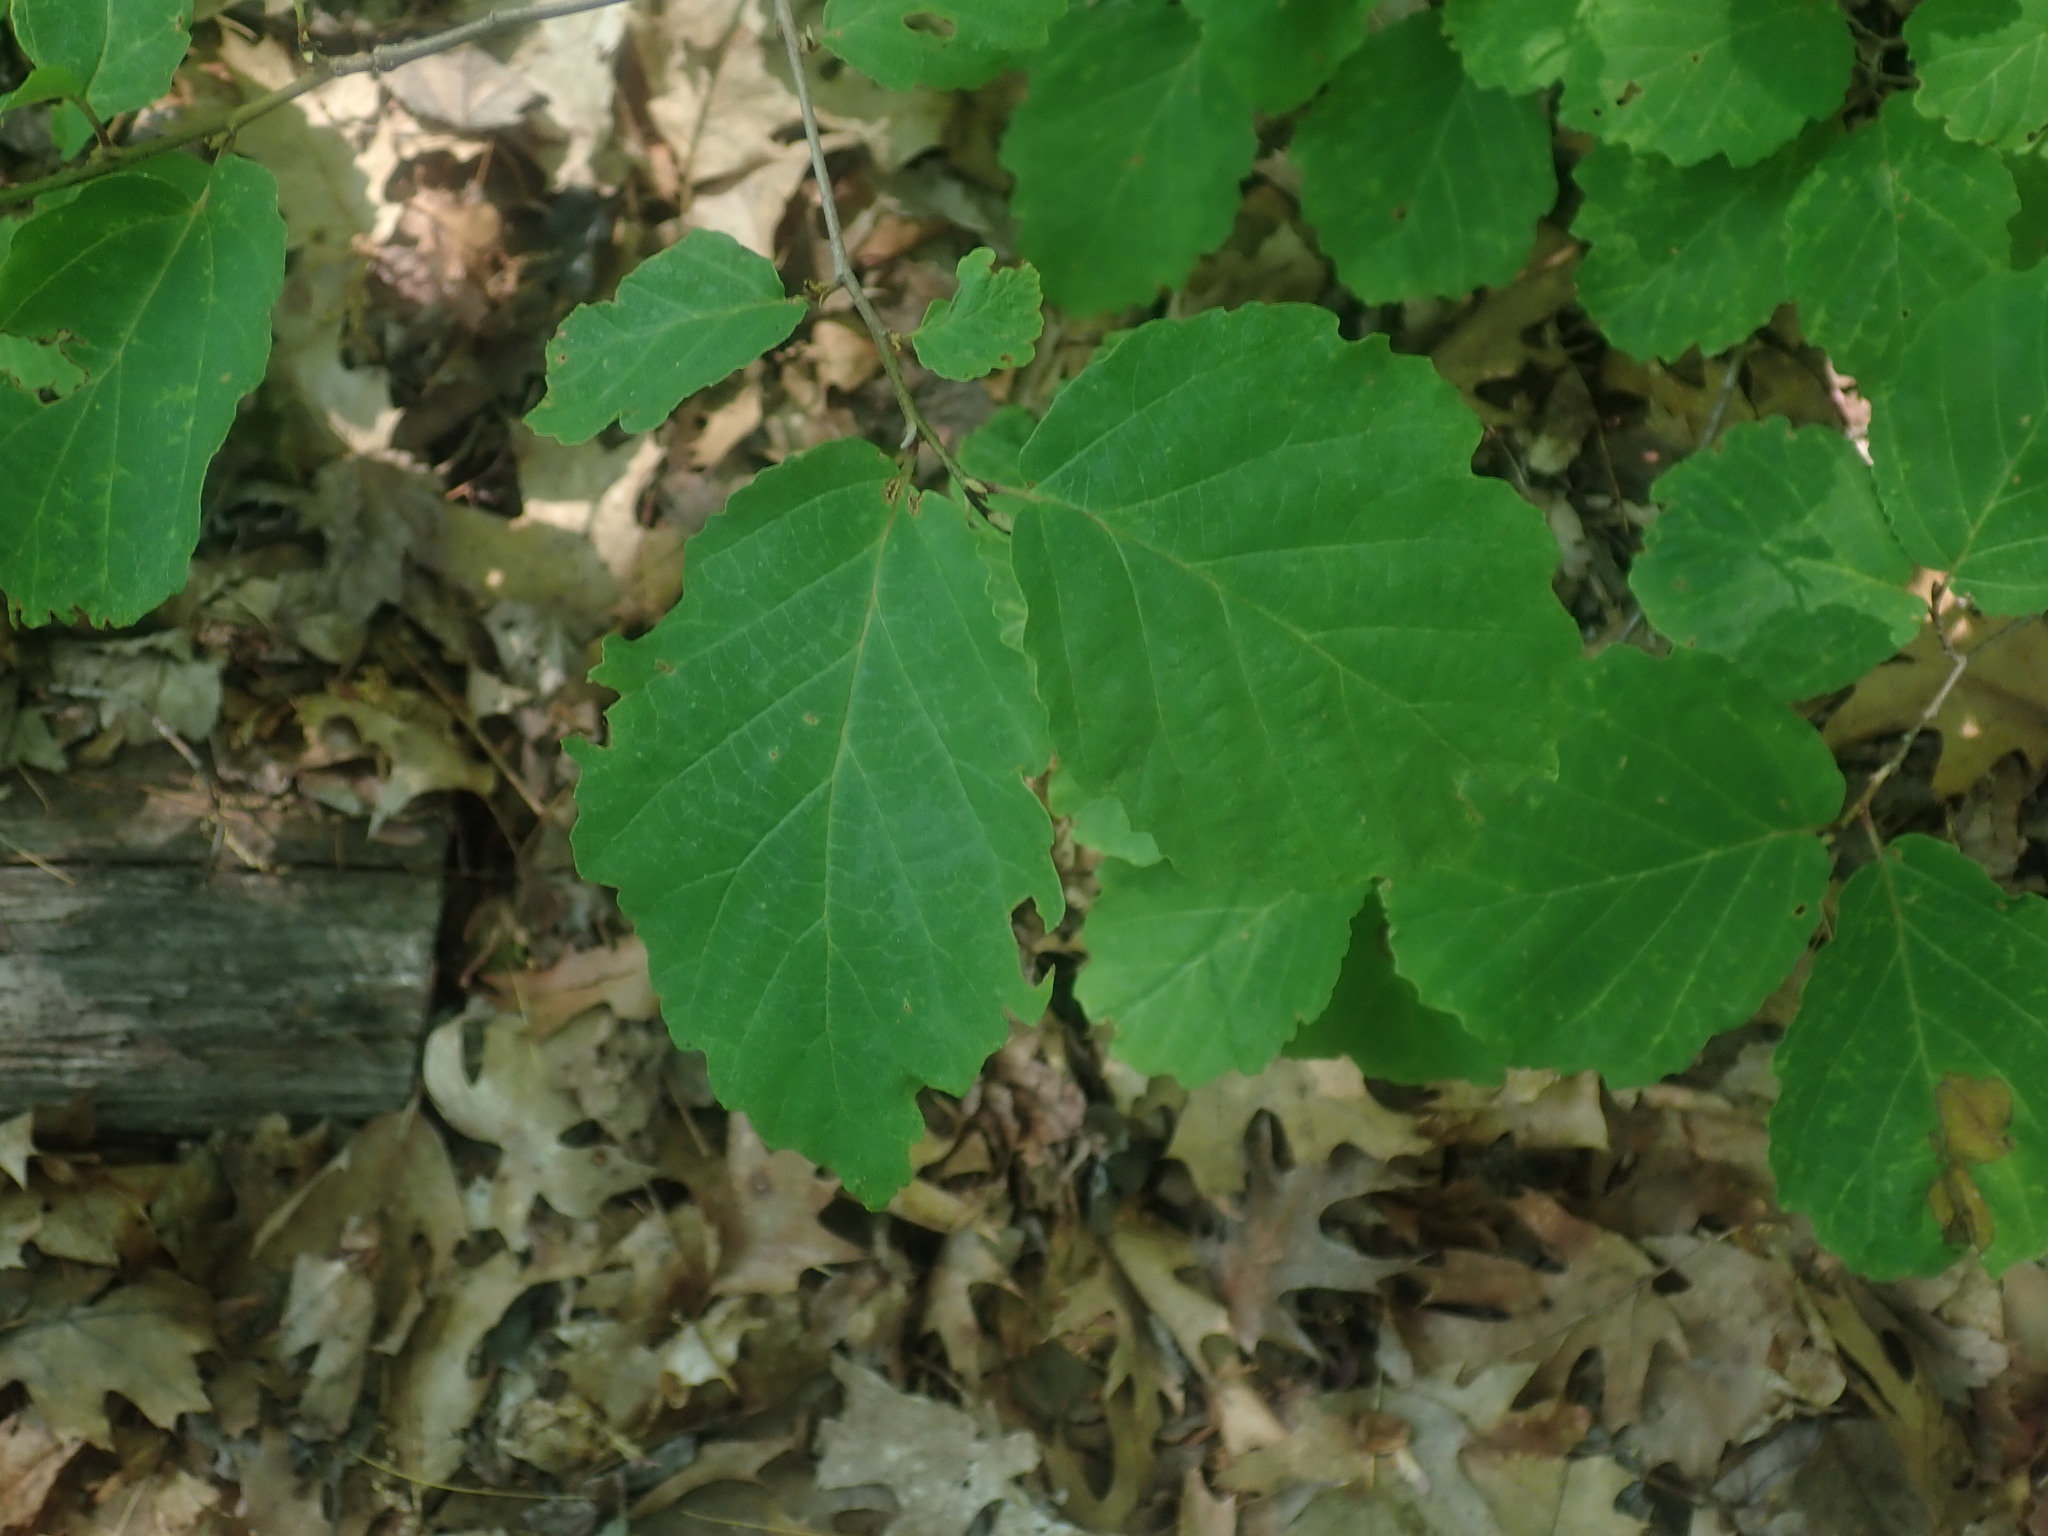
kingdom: Plantae
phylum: Tracheophyta
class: Magnoliopsida
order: Saxifragales
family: Hamamelidaceae
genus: Hamamelis
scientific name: Hamamelis virginiana
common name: Witch-hazel
